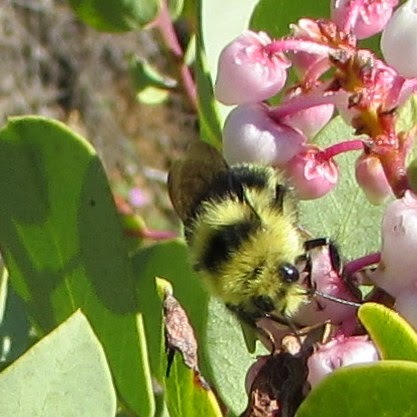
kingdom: Animalia
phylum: Arthropoda
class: Insecta
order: Hymenoptera
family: Apidae
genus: Bombus
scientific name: Bombus melanopygus
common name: Black tail bumble bee
